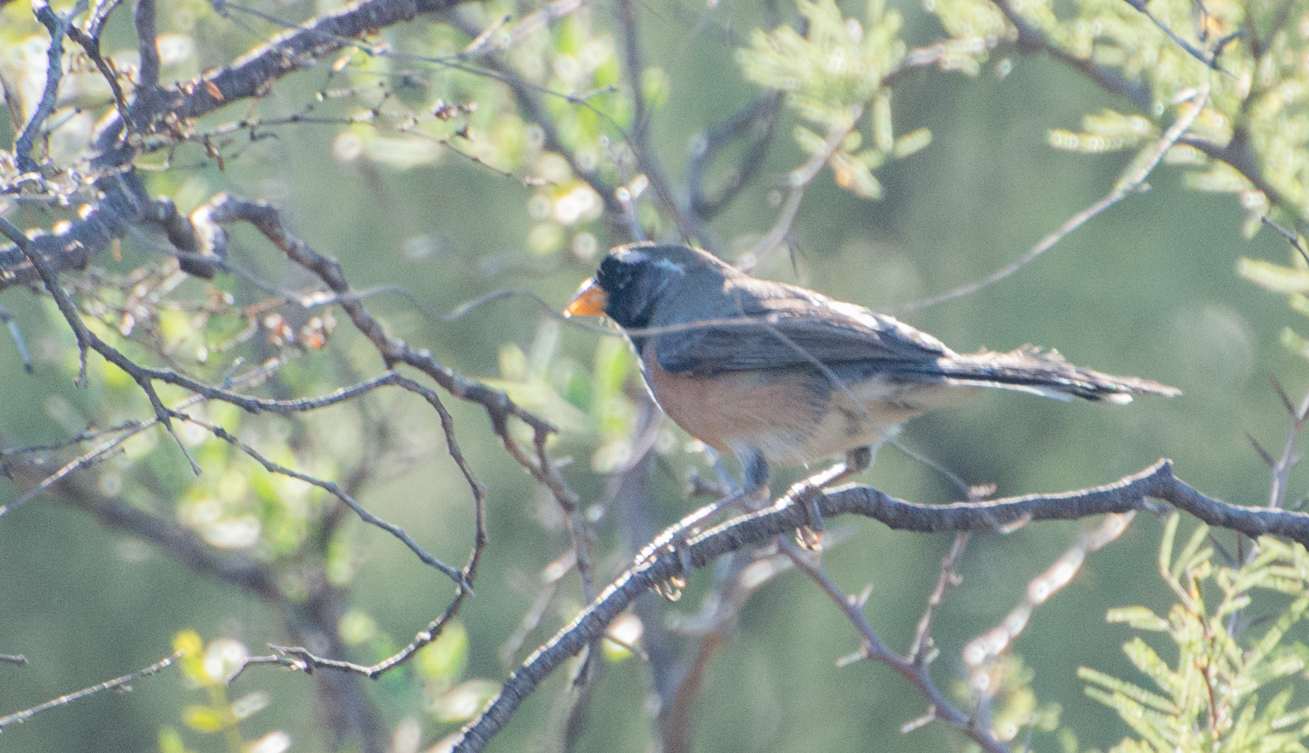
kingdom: Animalia
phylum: Chordata
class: Aves
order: Passeriformes
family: Thraupidae
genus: Saltatricula
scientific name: Saltatricula multicolor
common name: Many-colored chaco finch
